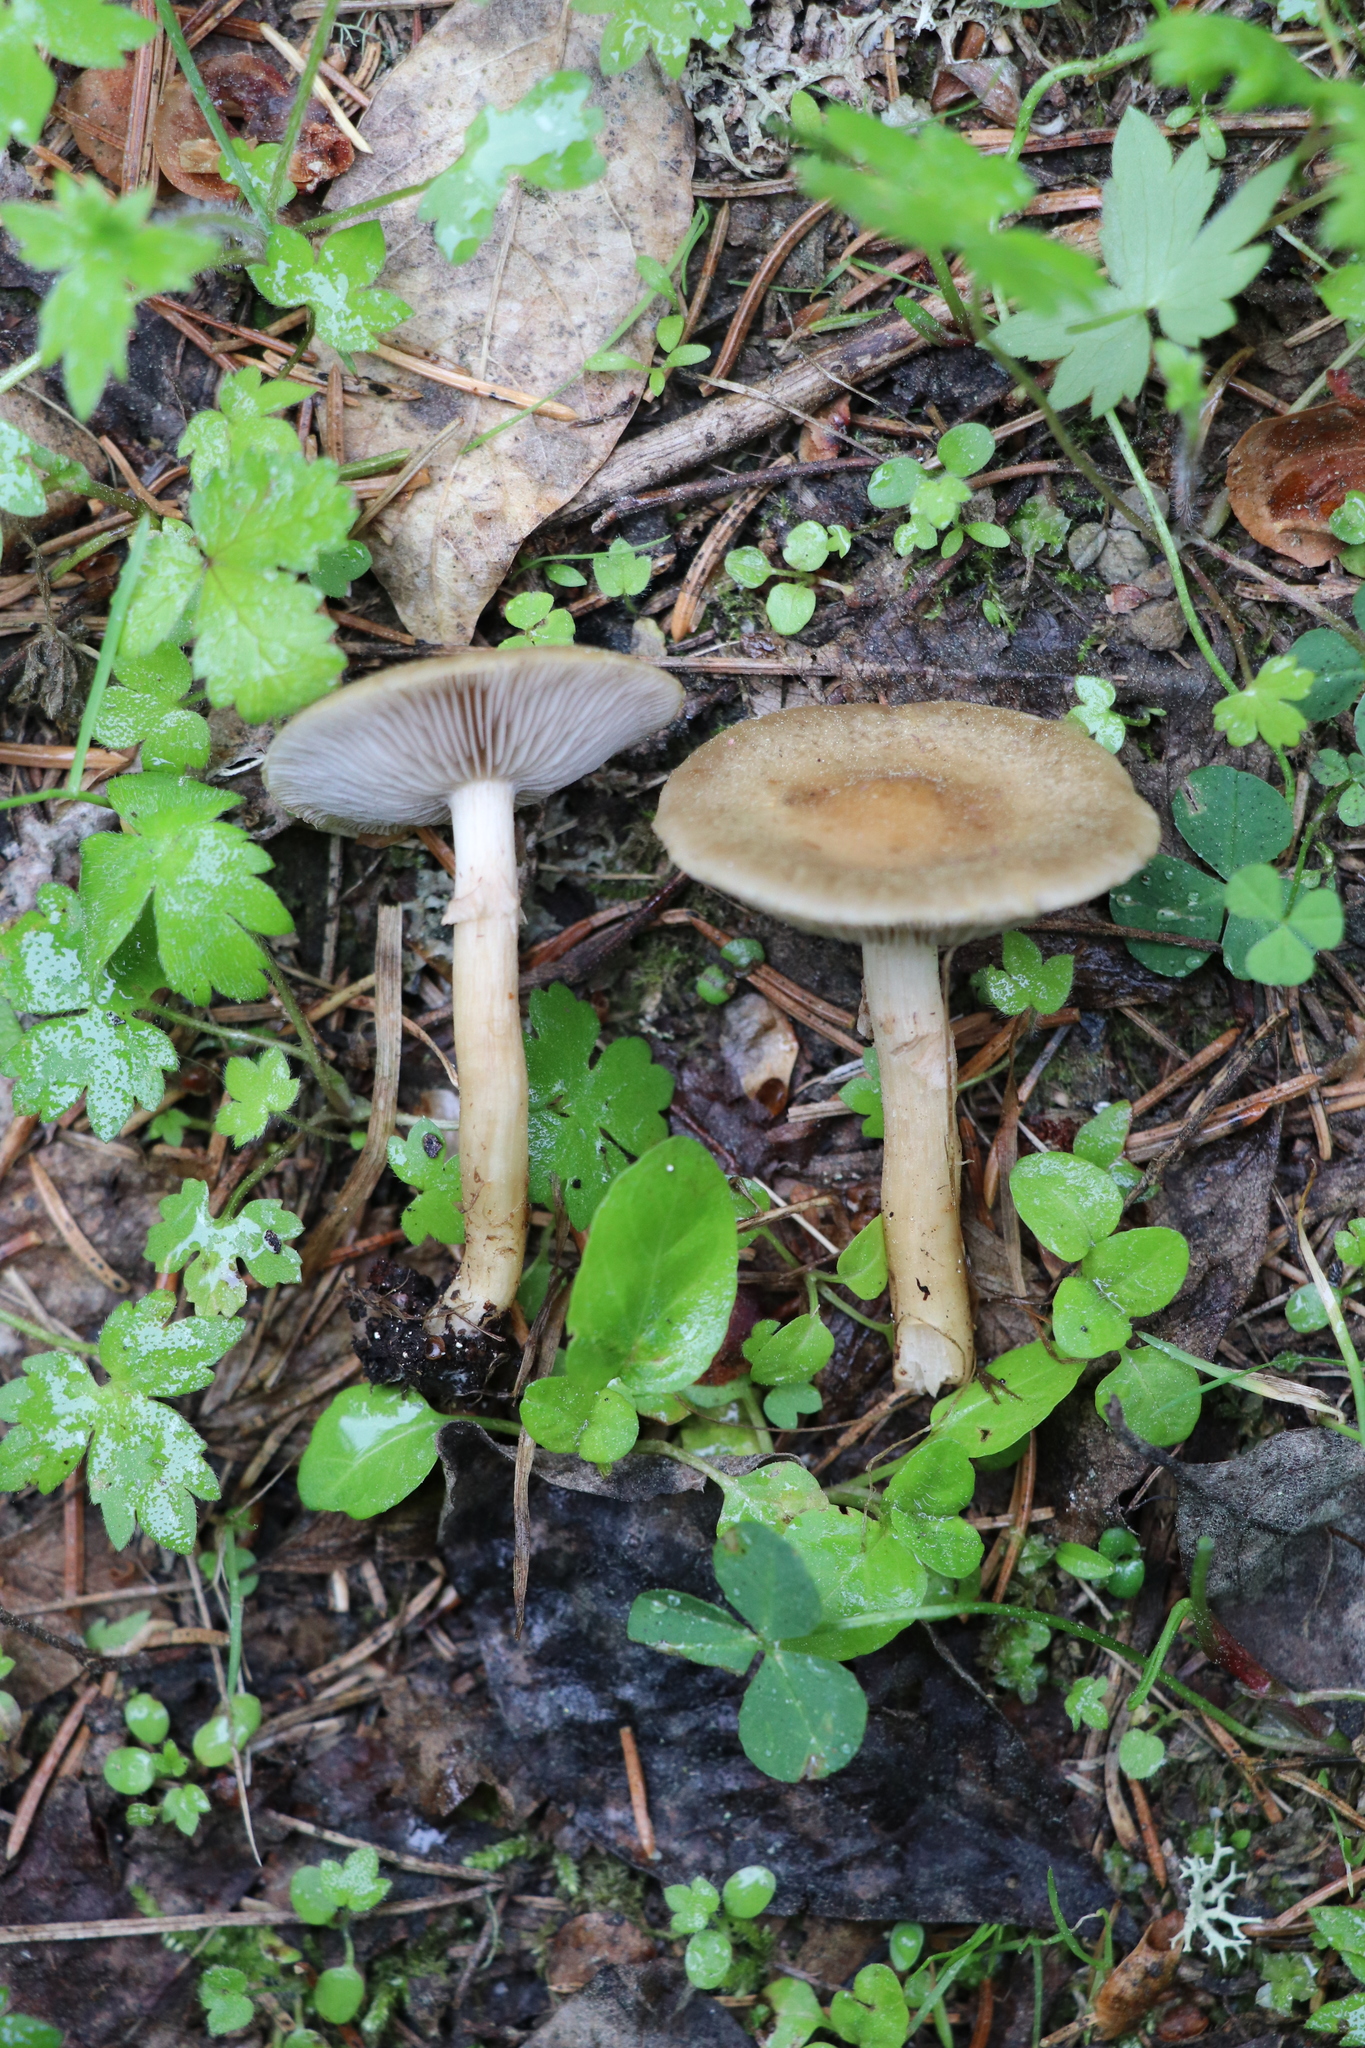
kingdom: Fungi
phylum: Basidiomycota
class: Agaricomycetes
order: Agaricales
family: Strophariaceae
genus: Agrocybe
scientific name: Agrocybe praecox
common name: Spring fieldcap
